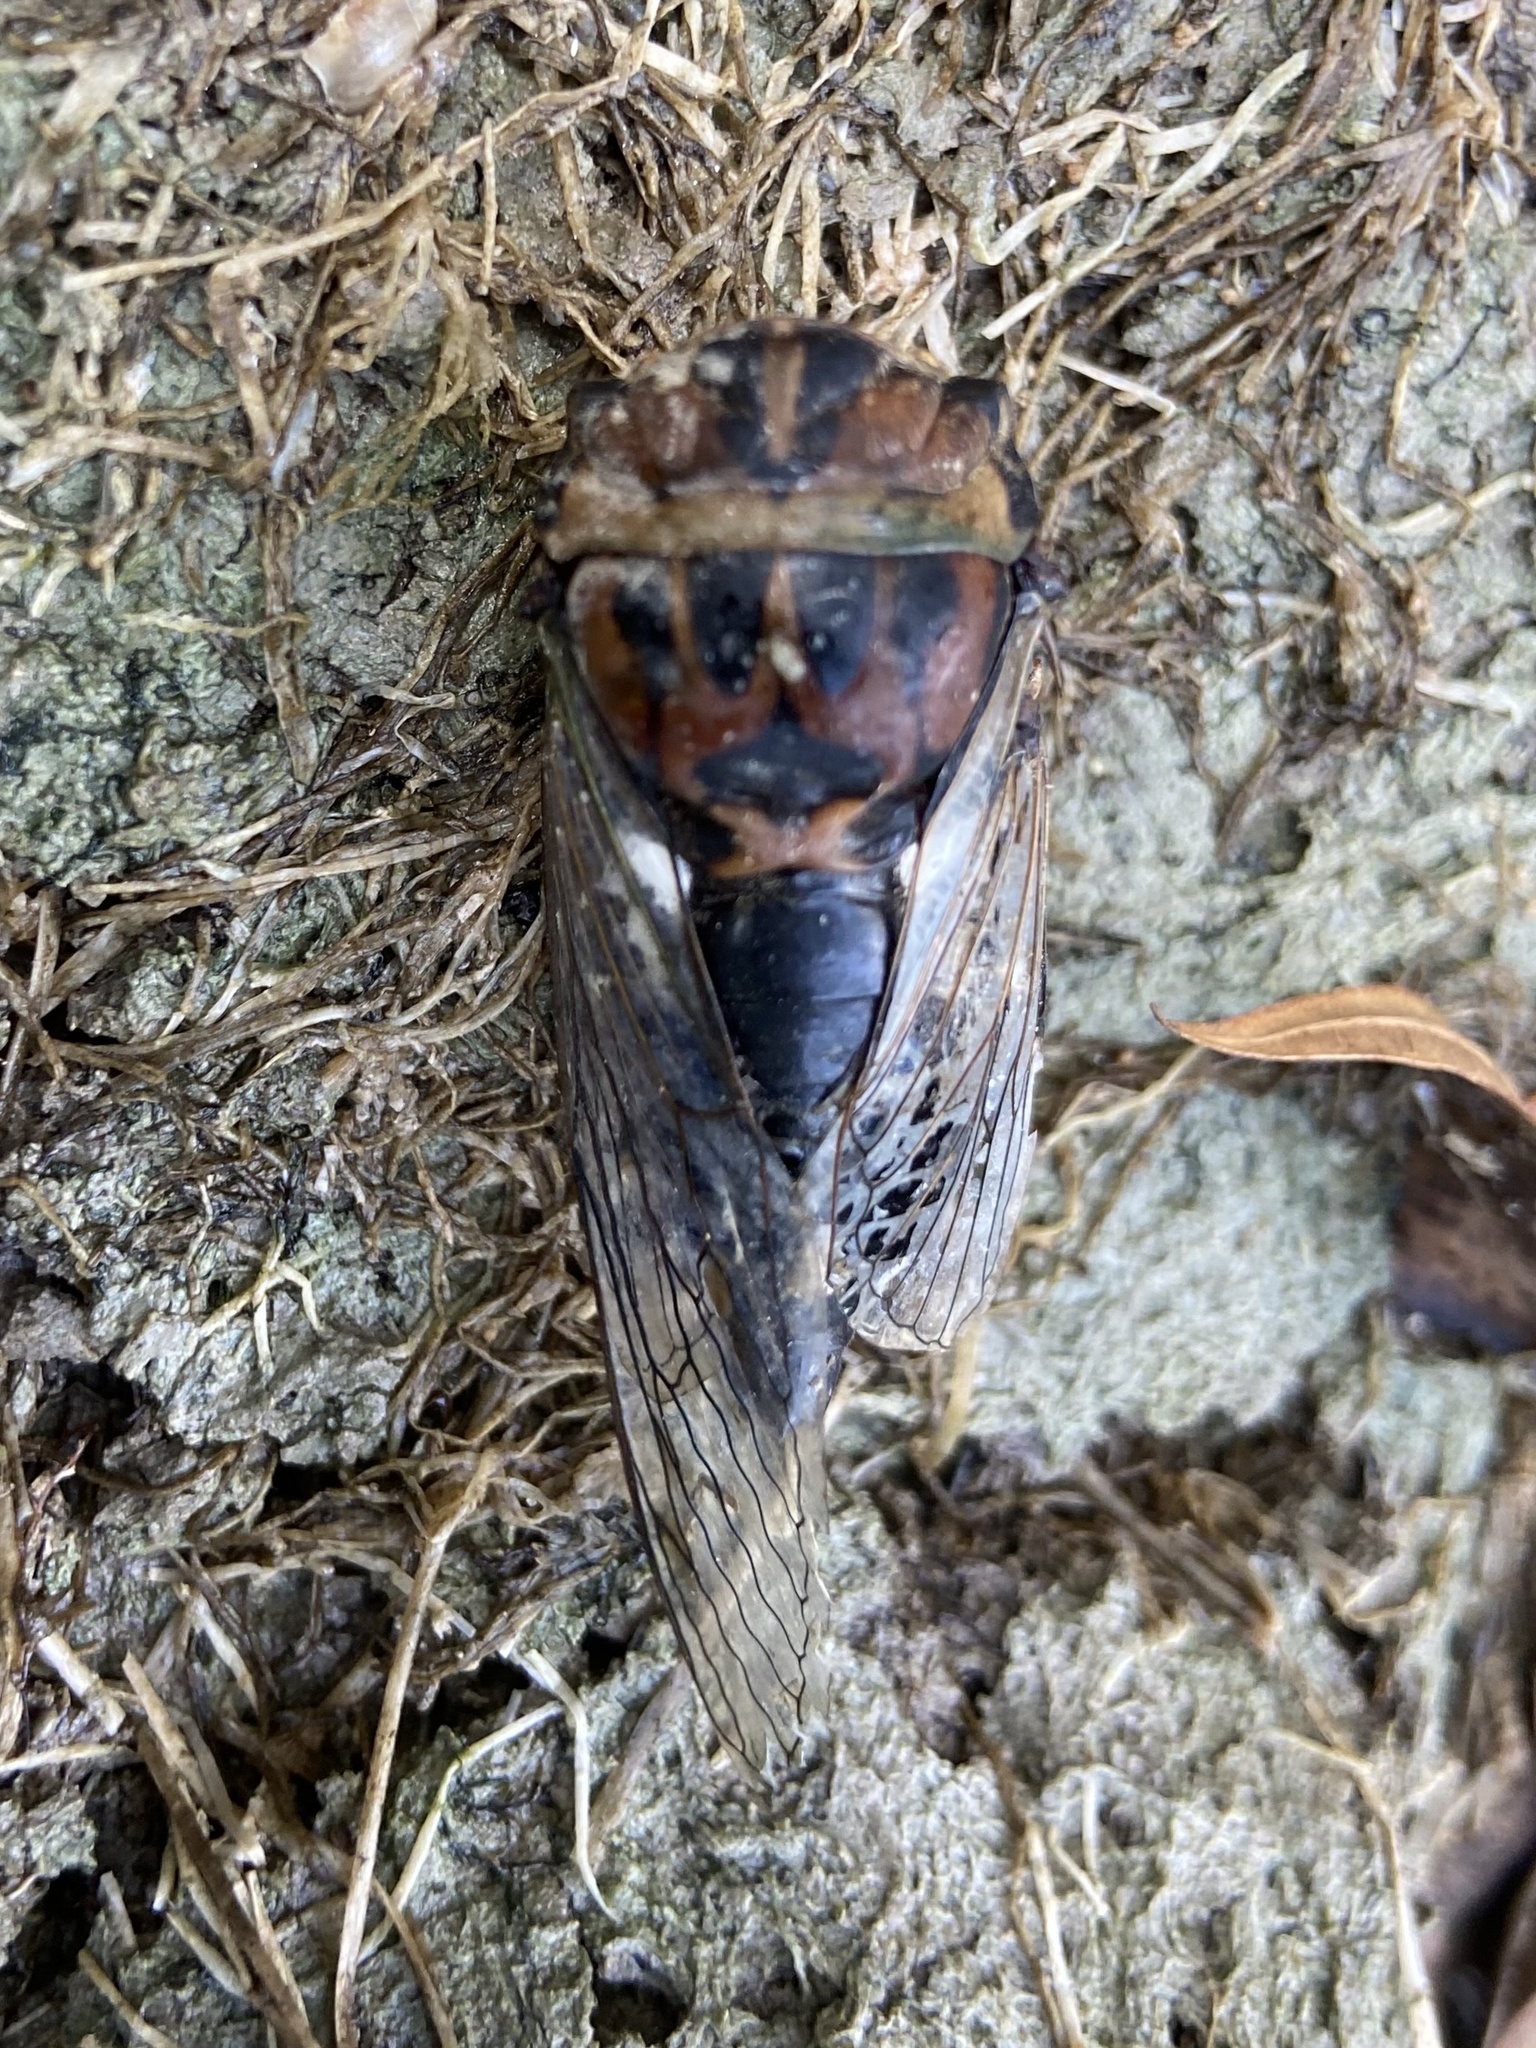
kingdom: Animalia
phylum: Arthropoda
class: Insecta
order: Hemiptera
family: Cicadidae
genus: Neotibicen
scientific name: Neotibicen aurifer
